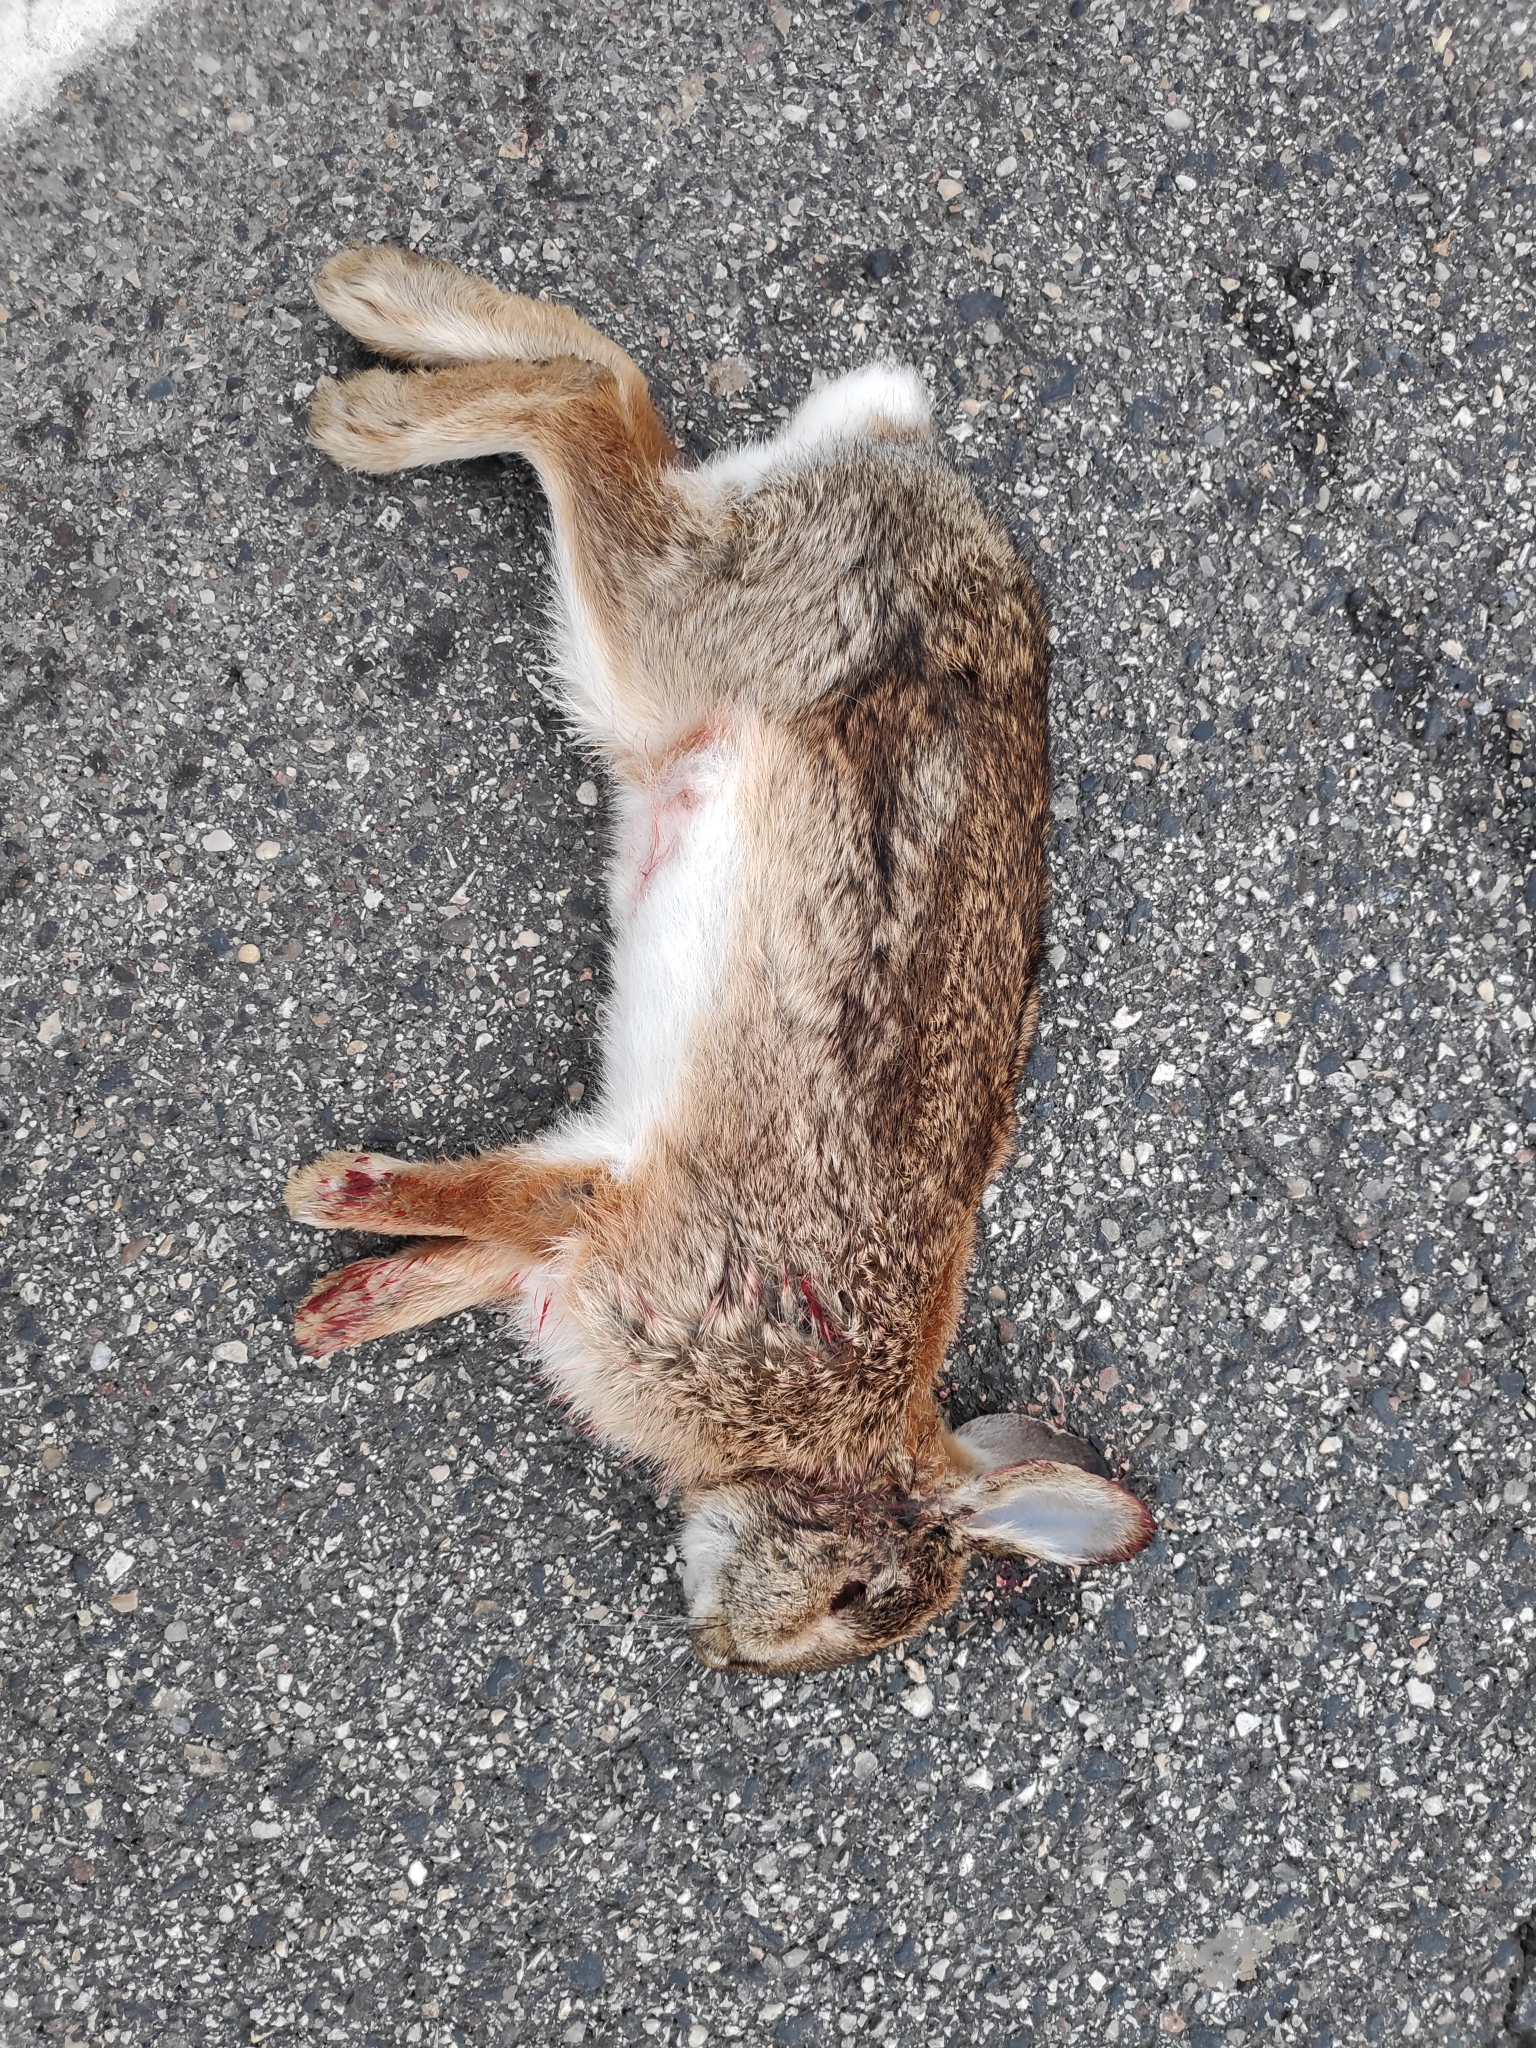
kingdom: Animalia
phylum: Chordata
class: Mammalia
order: Lagomorpha
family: Leporidae
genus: Sylvilagus
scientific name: Sylvilagus floridanus
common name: Eastern cottontail
